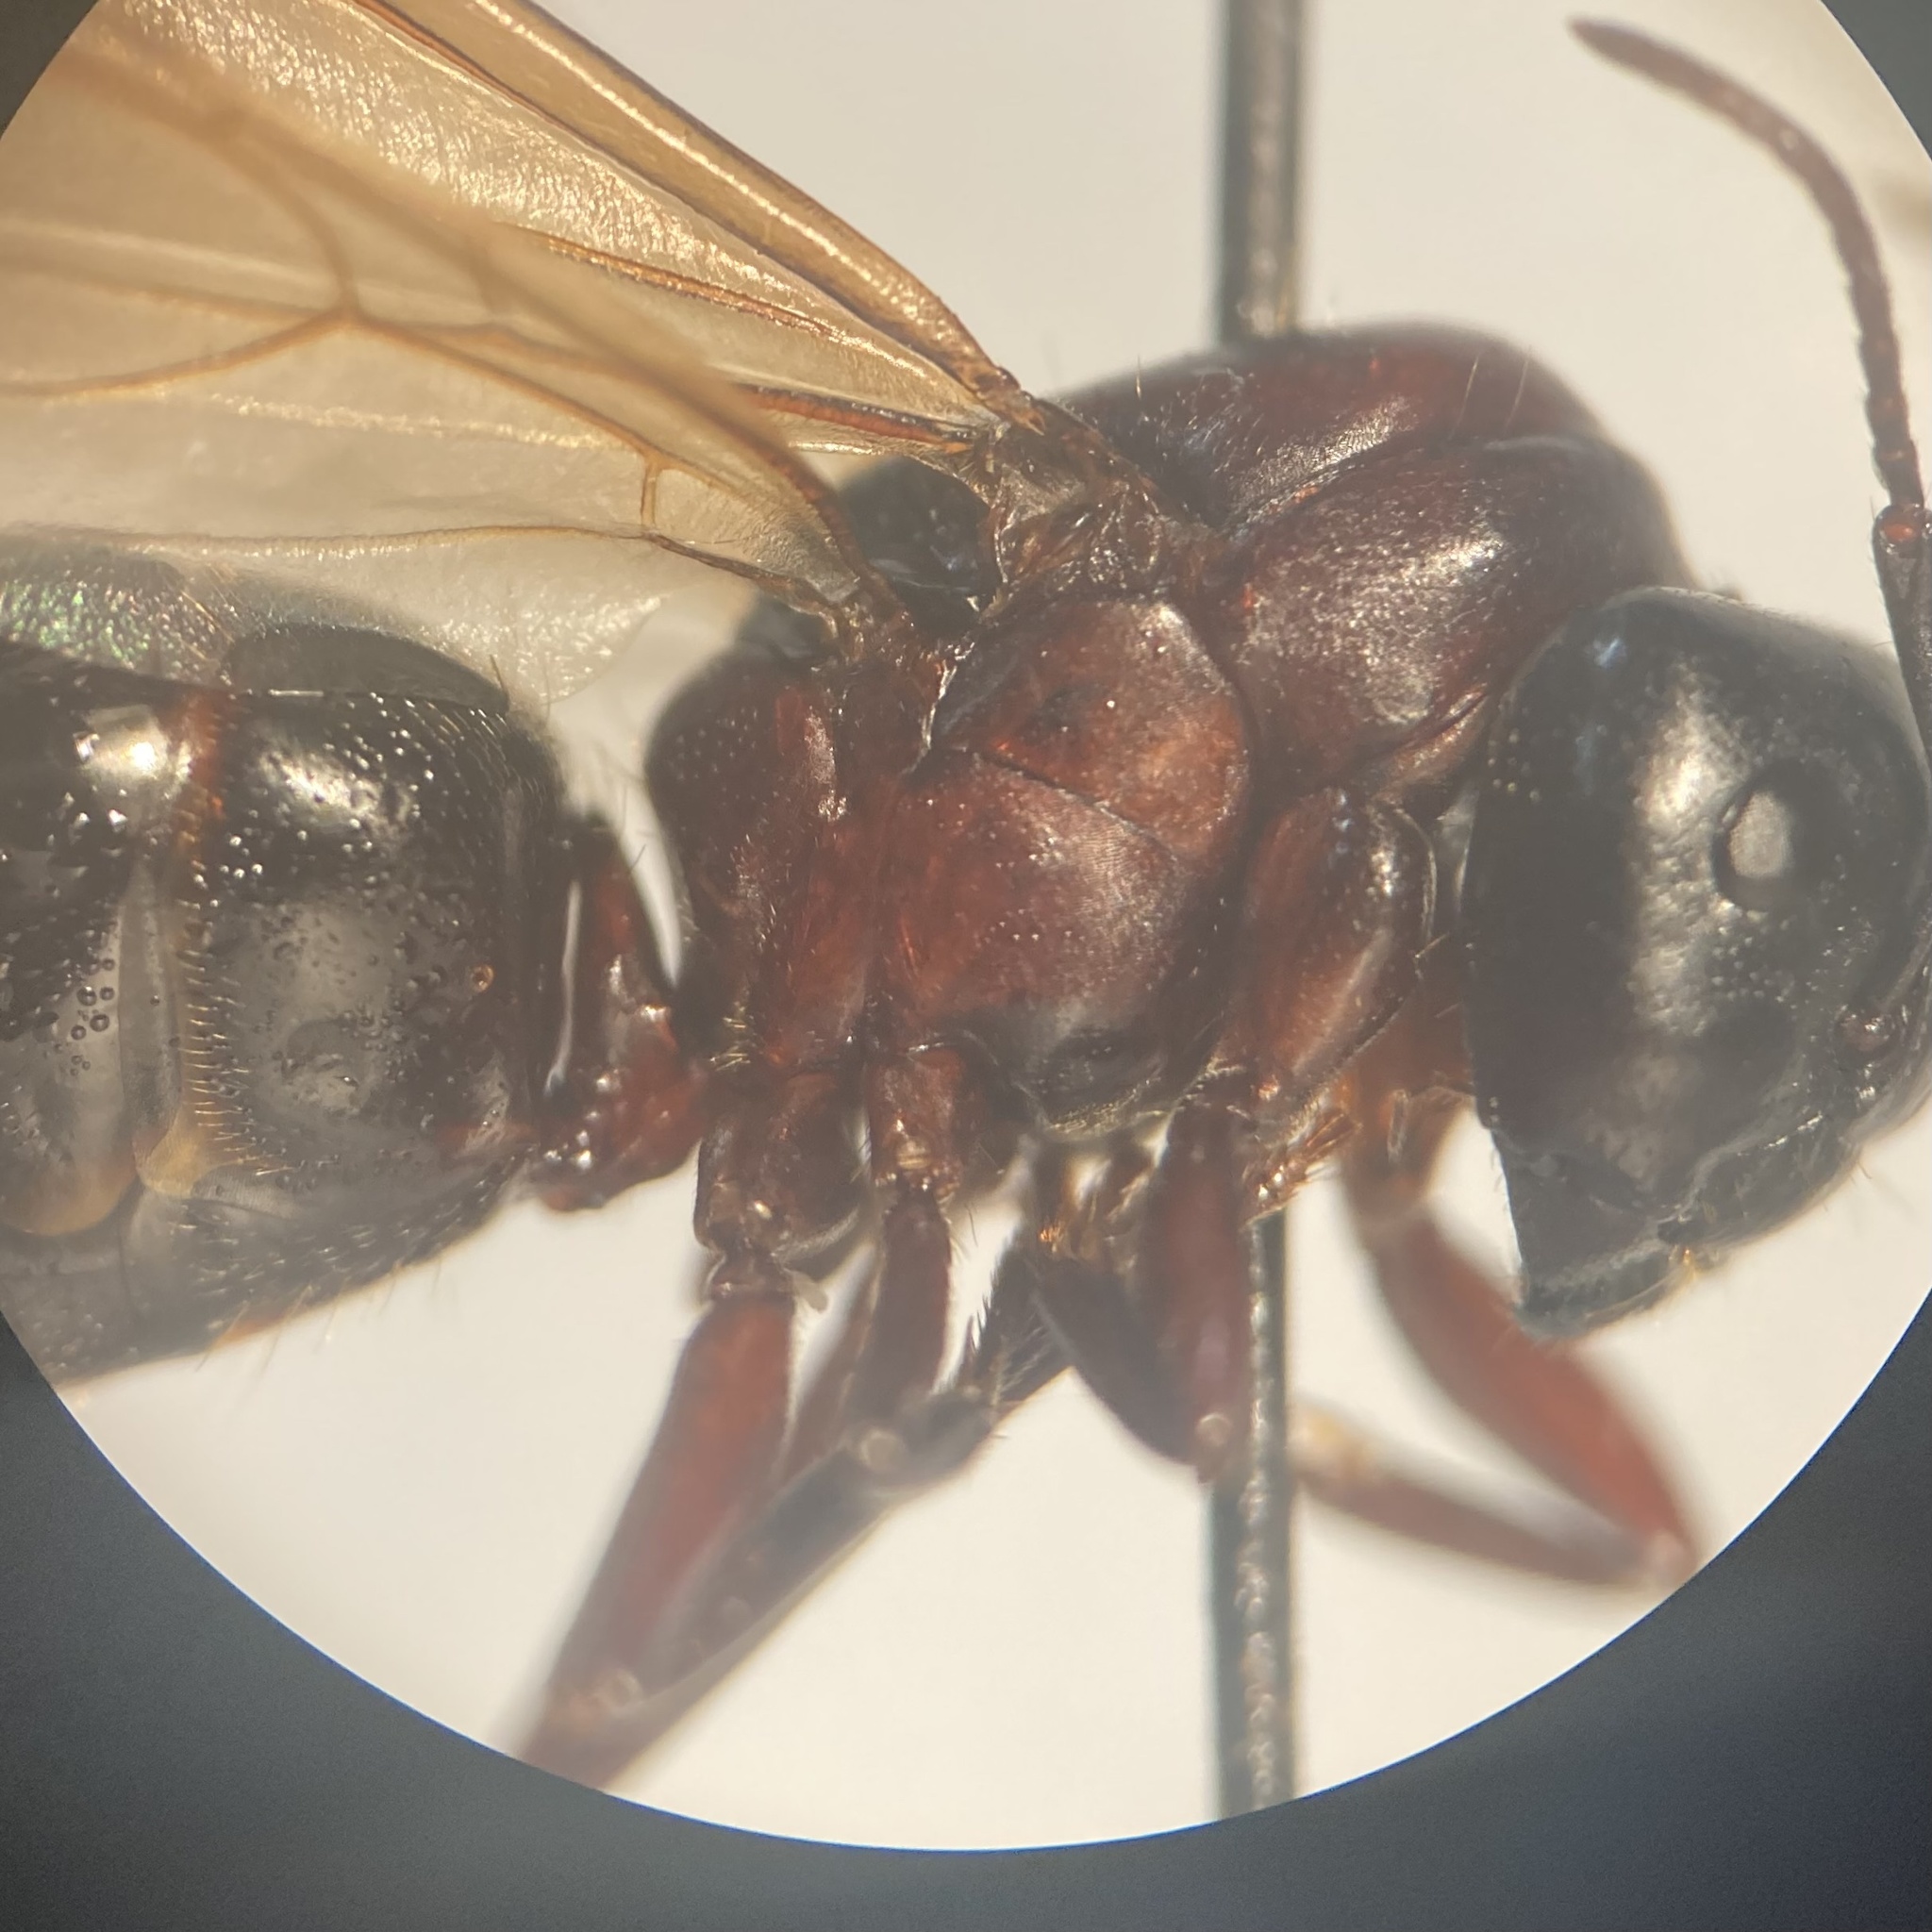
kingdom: Animalia
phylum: Arthropoda
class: Insecta
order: Hymenoptera
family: Formicidae
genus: Camponotus
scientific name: Camponotus novaeboracensis
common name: New york carpenter ant
